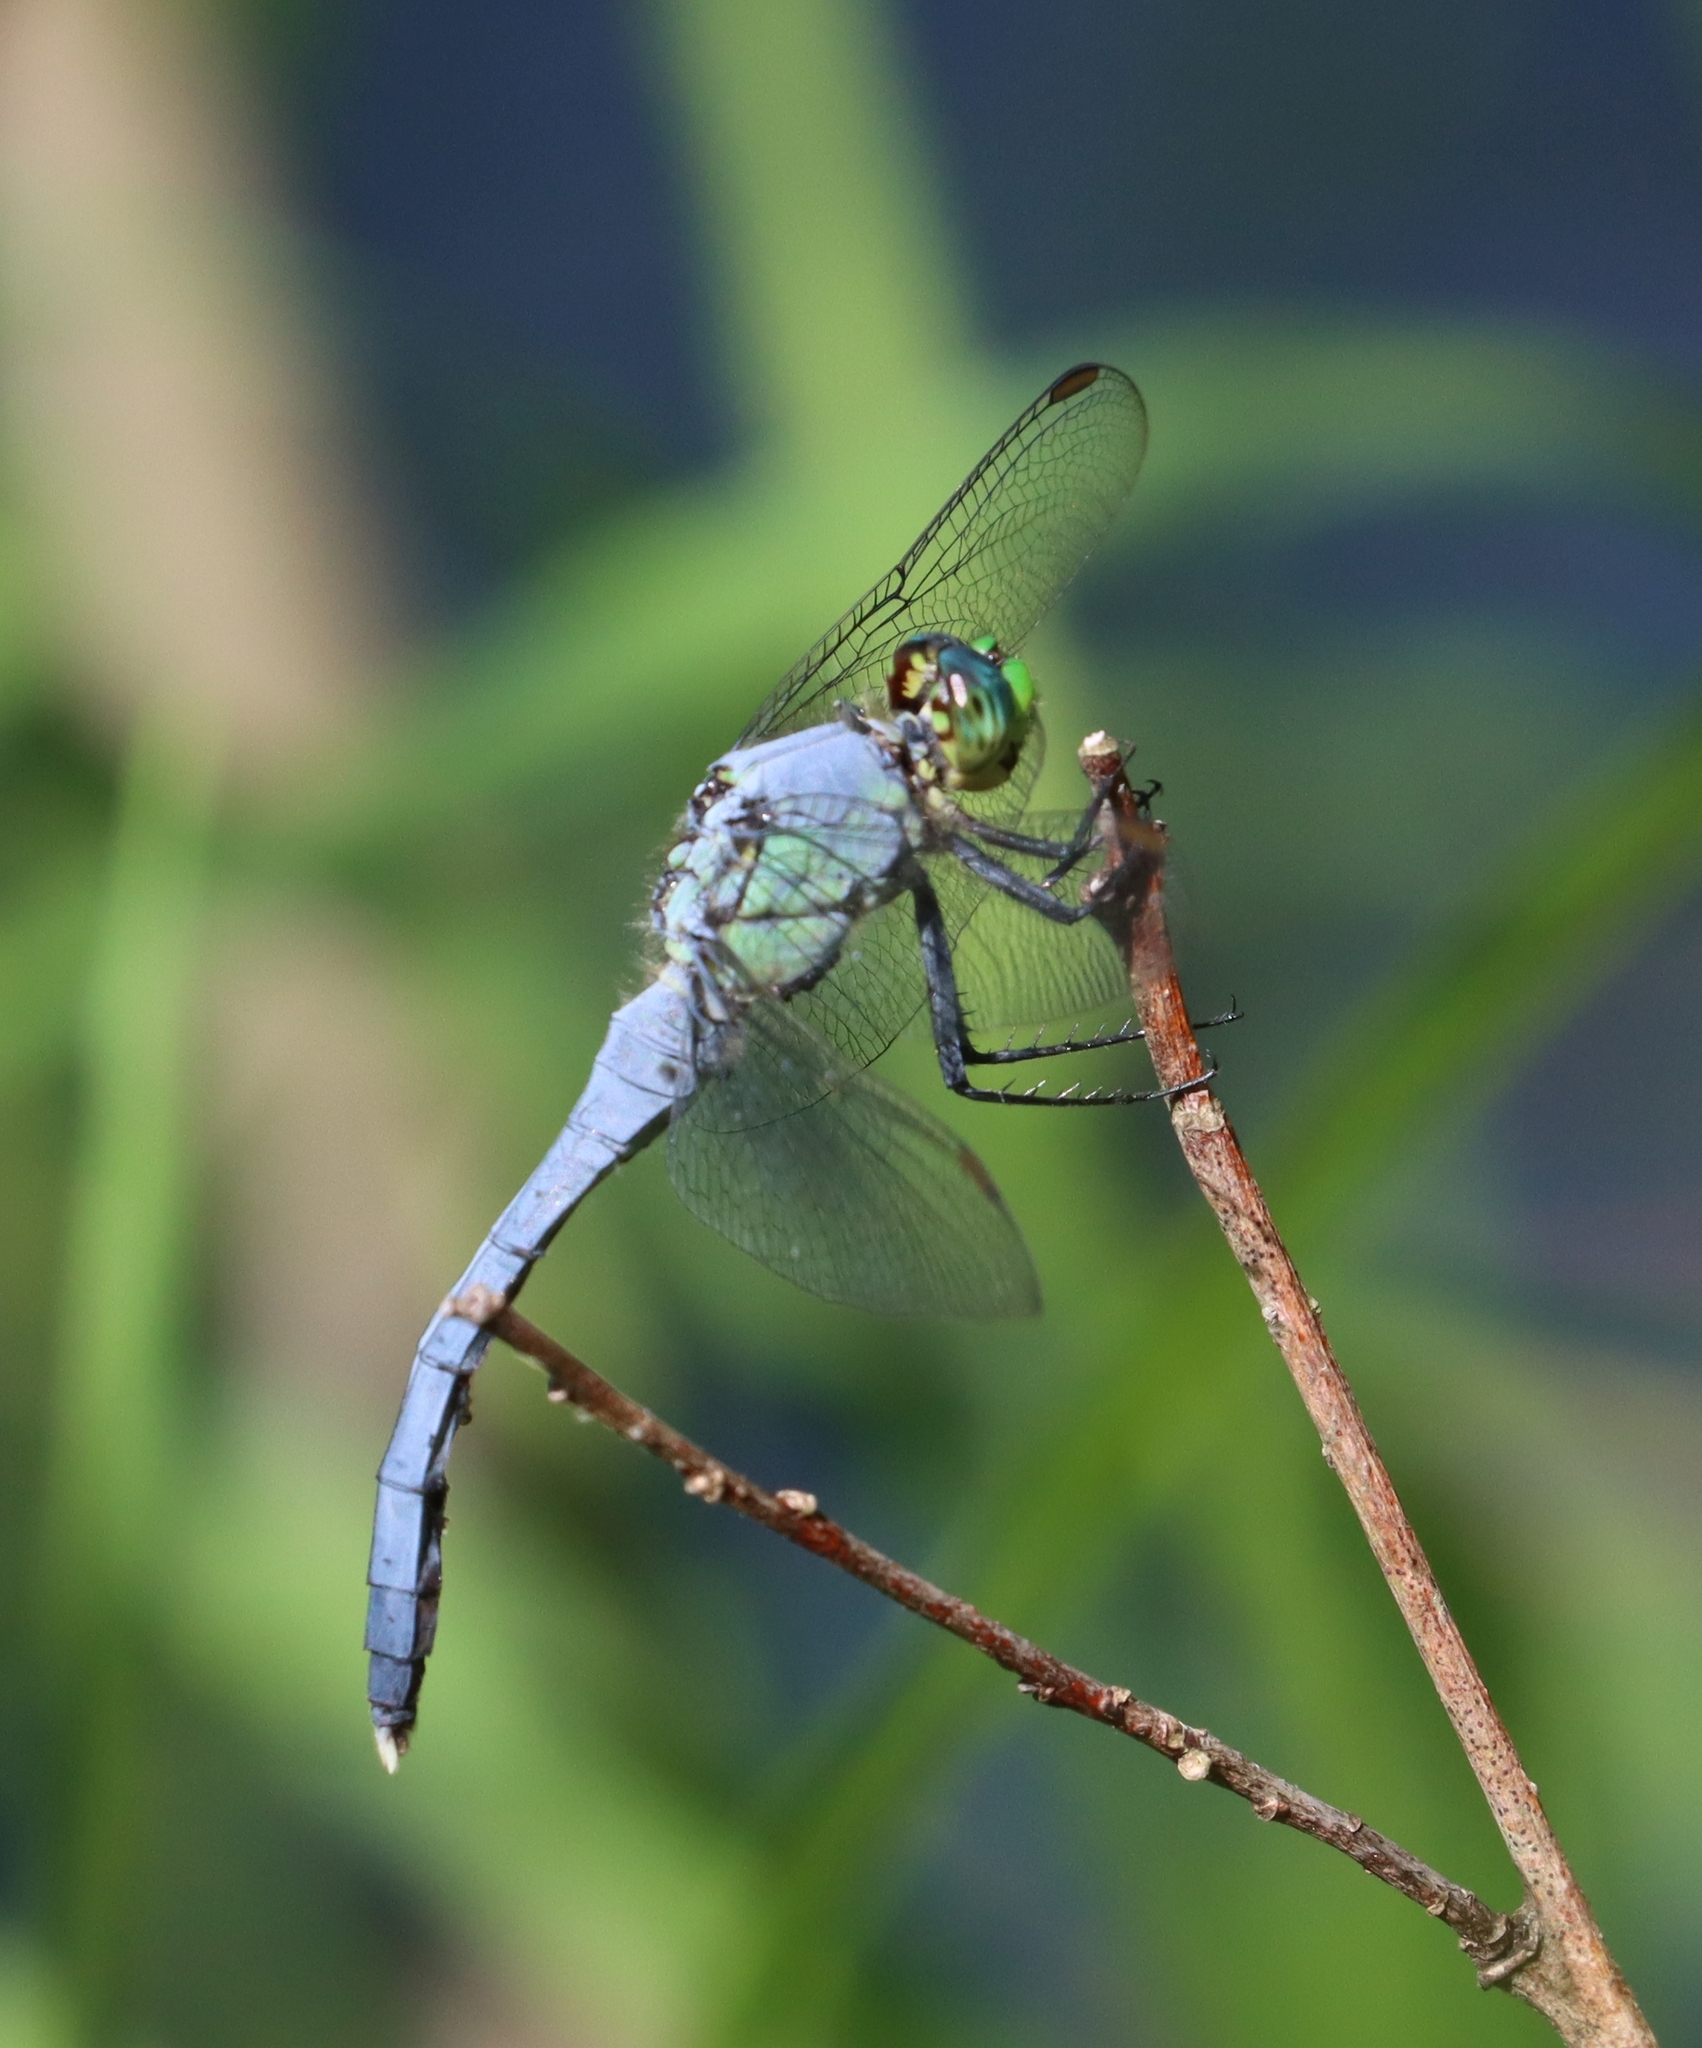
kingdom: Animalia
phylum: Arthropoda
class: Insecta
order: Odonata
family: Libellulidae
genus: Erythemis
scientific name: Erythemis simplicicollis
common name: Eastern pondhawk
